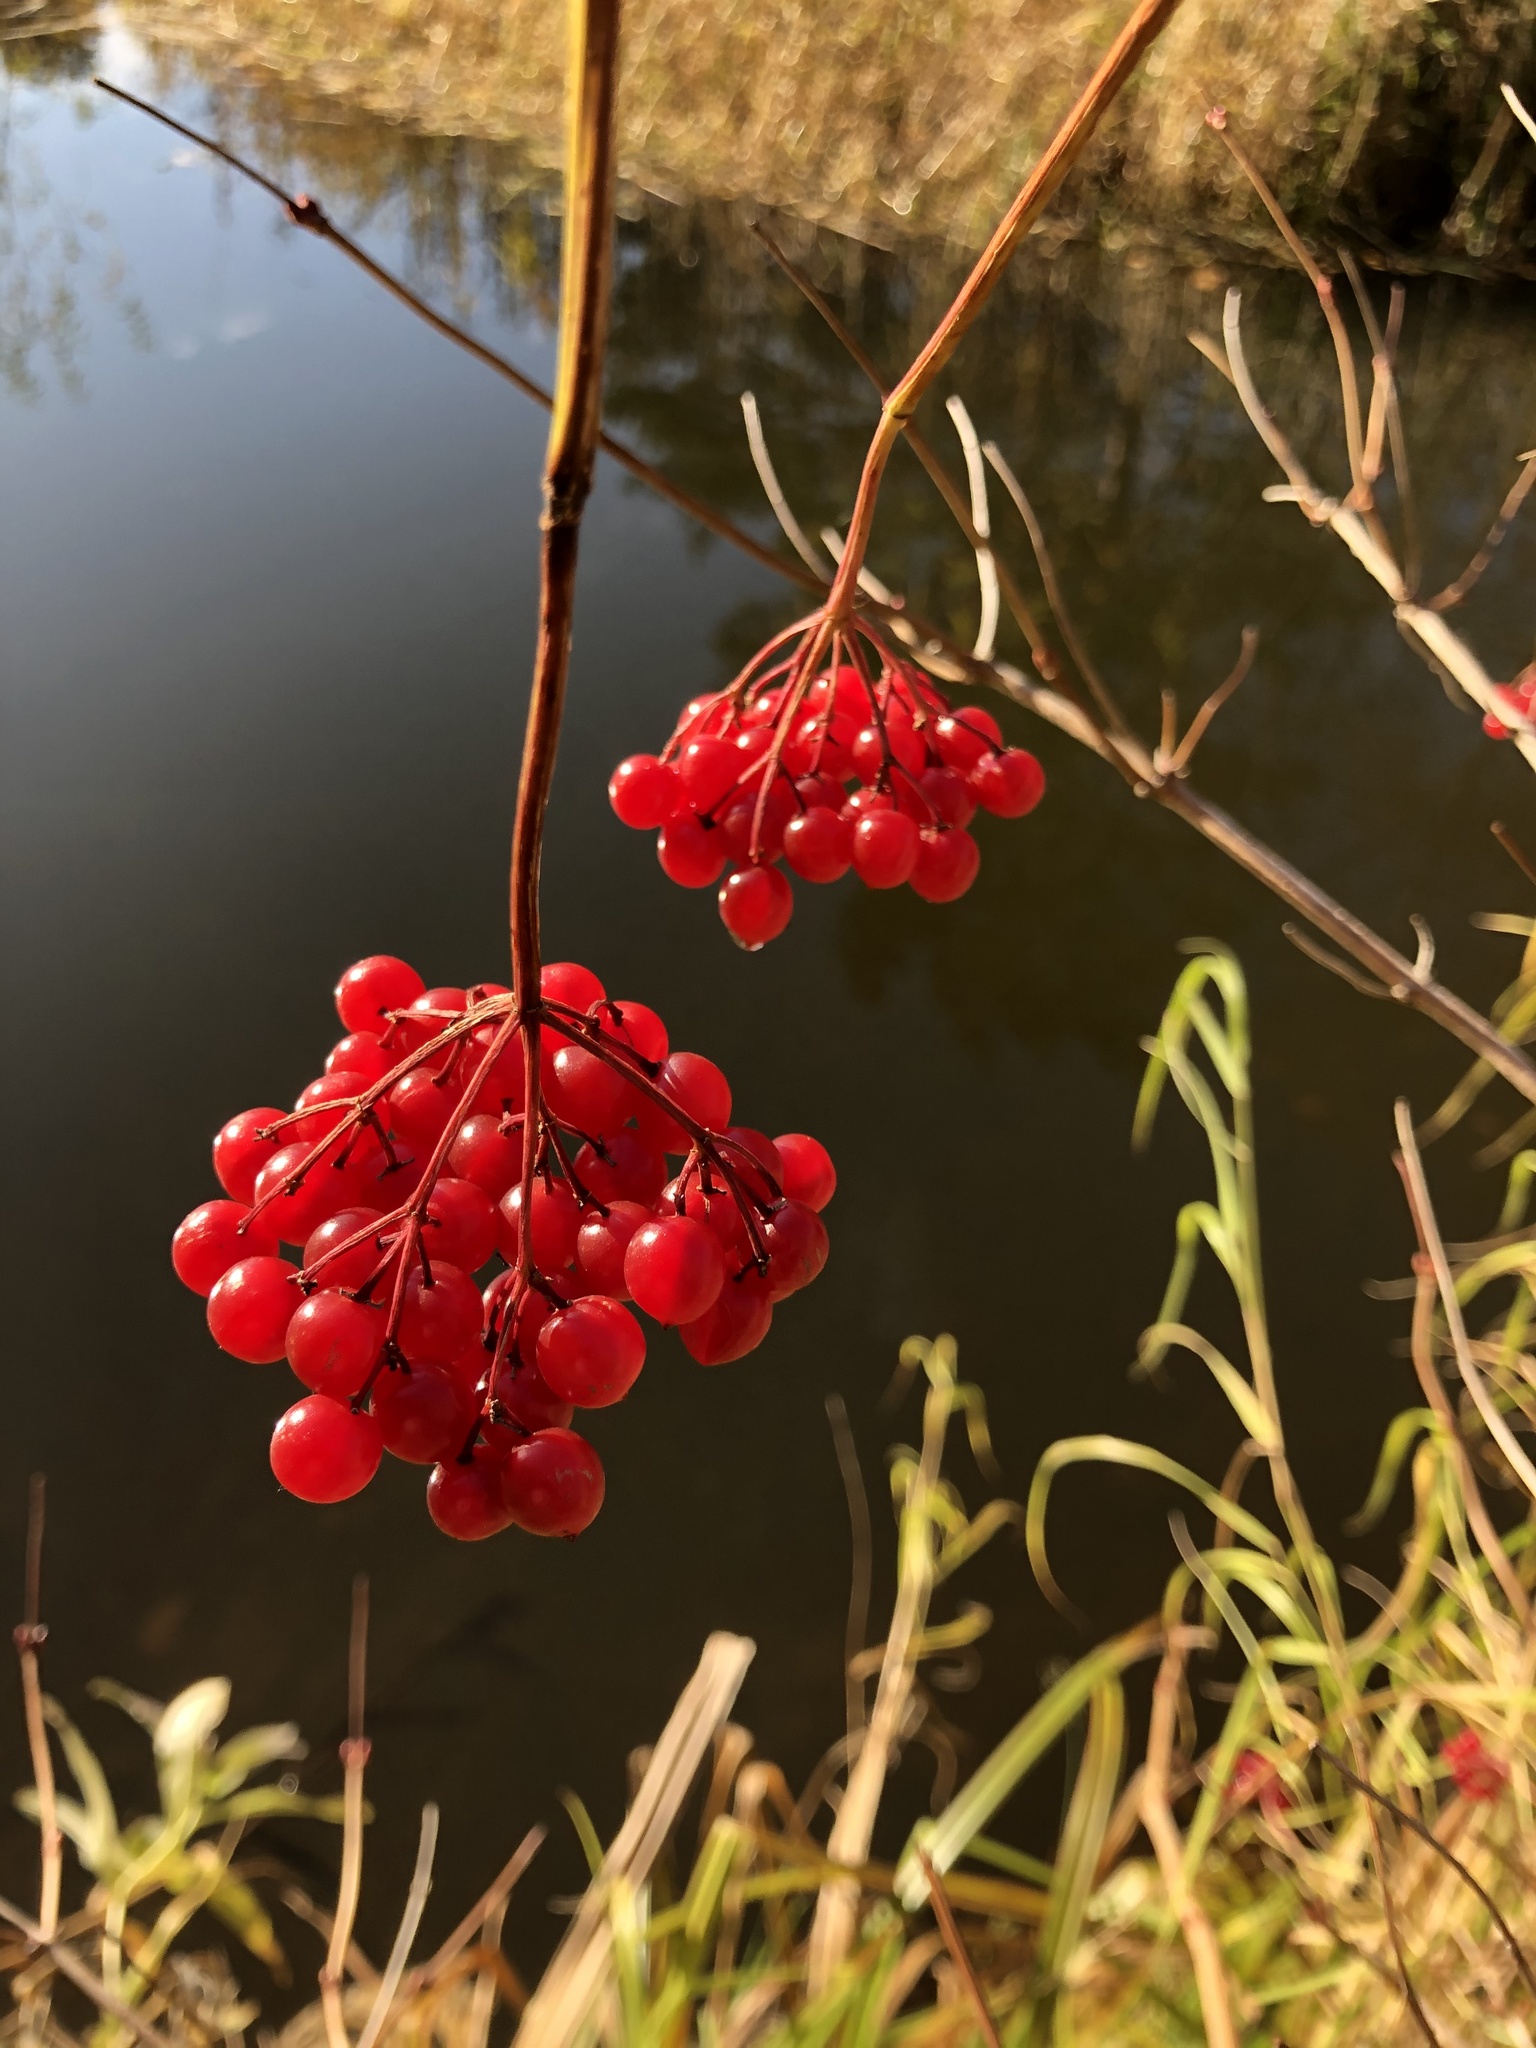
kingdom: Plantae
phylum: Tracheophyta
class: Magnoliopsida
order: Dipsacales
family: Viburnaceae
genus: Viburnum
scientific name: Viburnum opulus
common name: Guelder-rose
